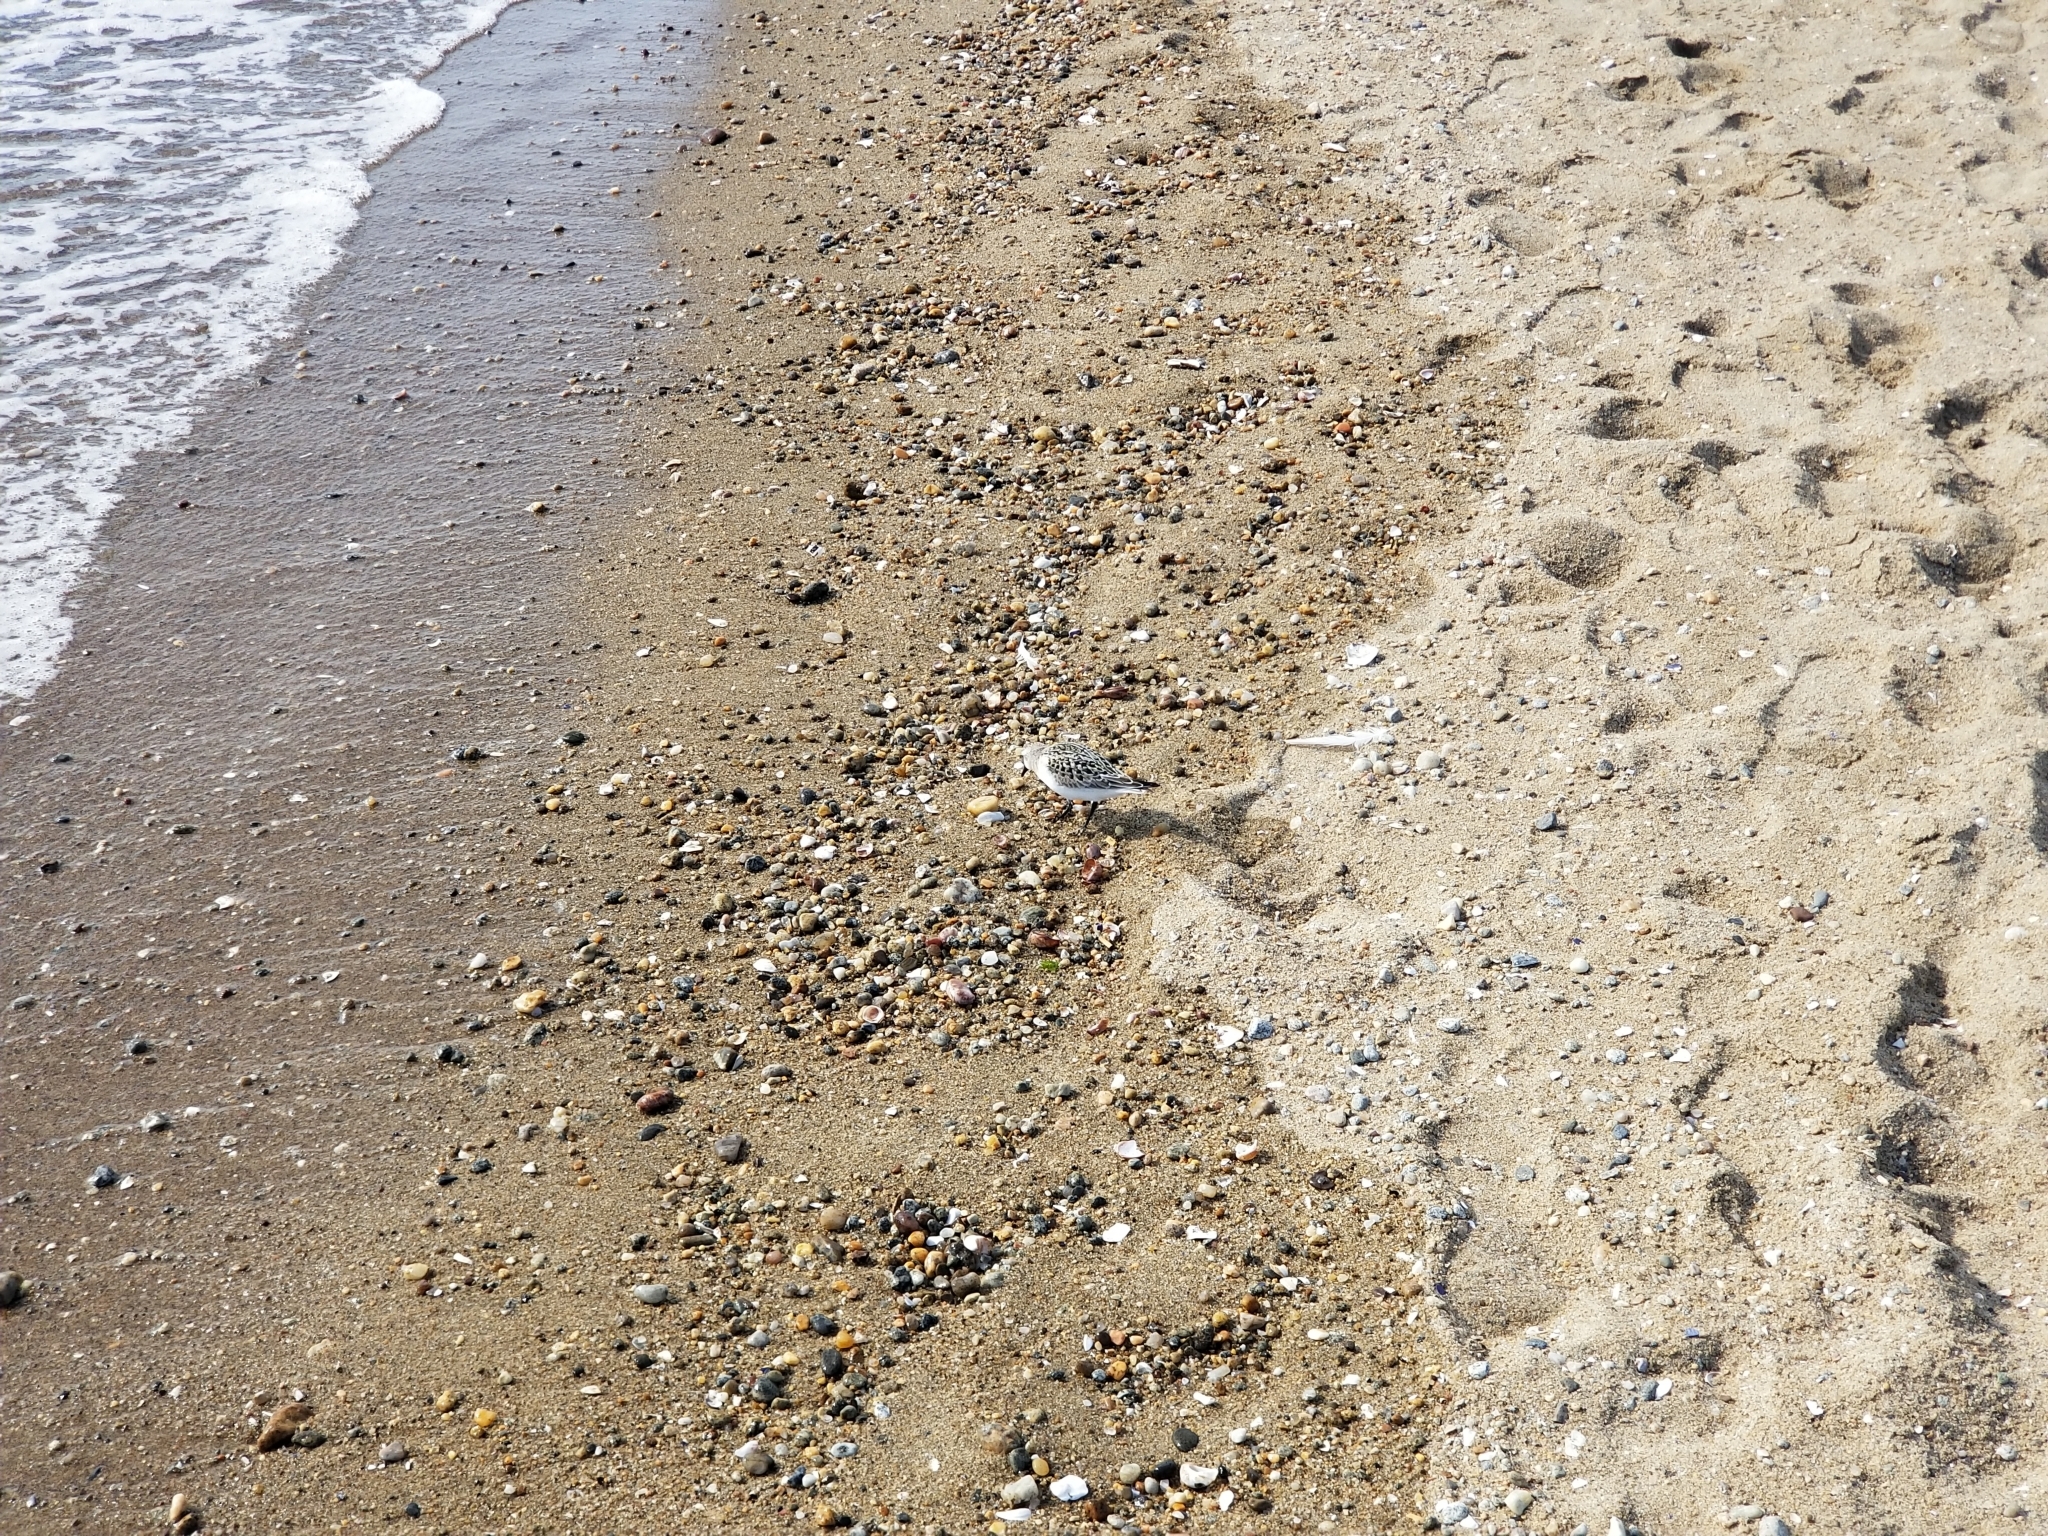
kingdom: Animalia
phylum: Chordata
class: Aves
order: Charadriiformes
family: Scolopacidae
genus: Calidris
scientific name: Calidris alba
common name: Sanderling
